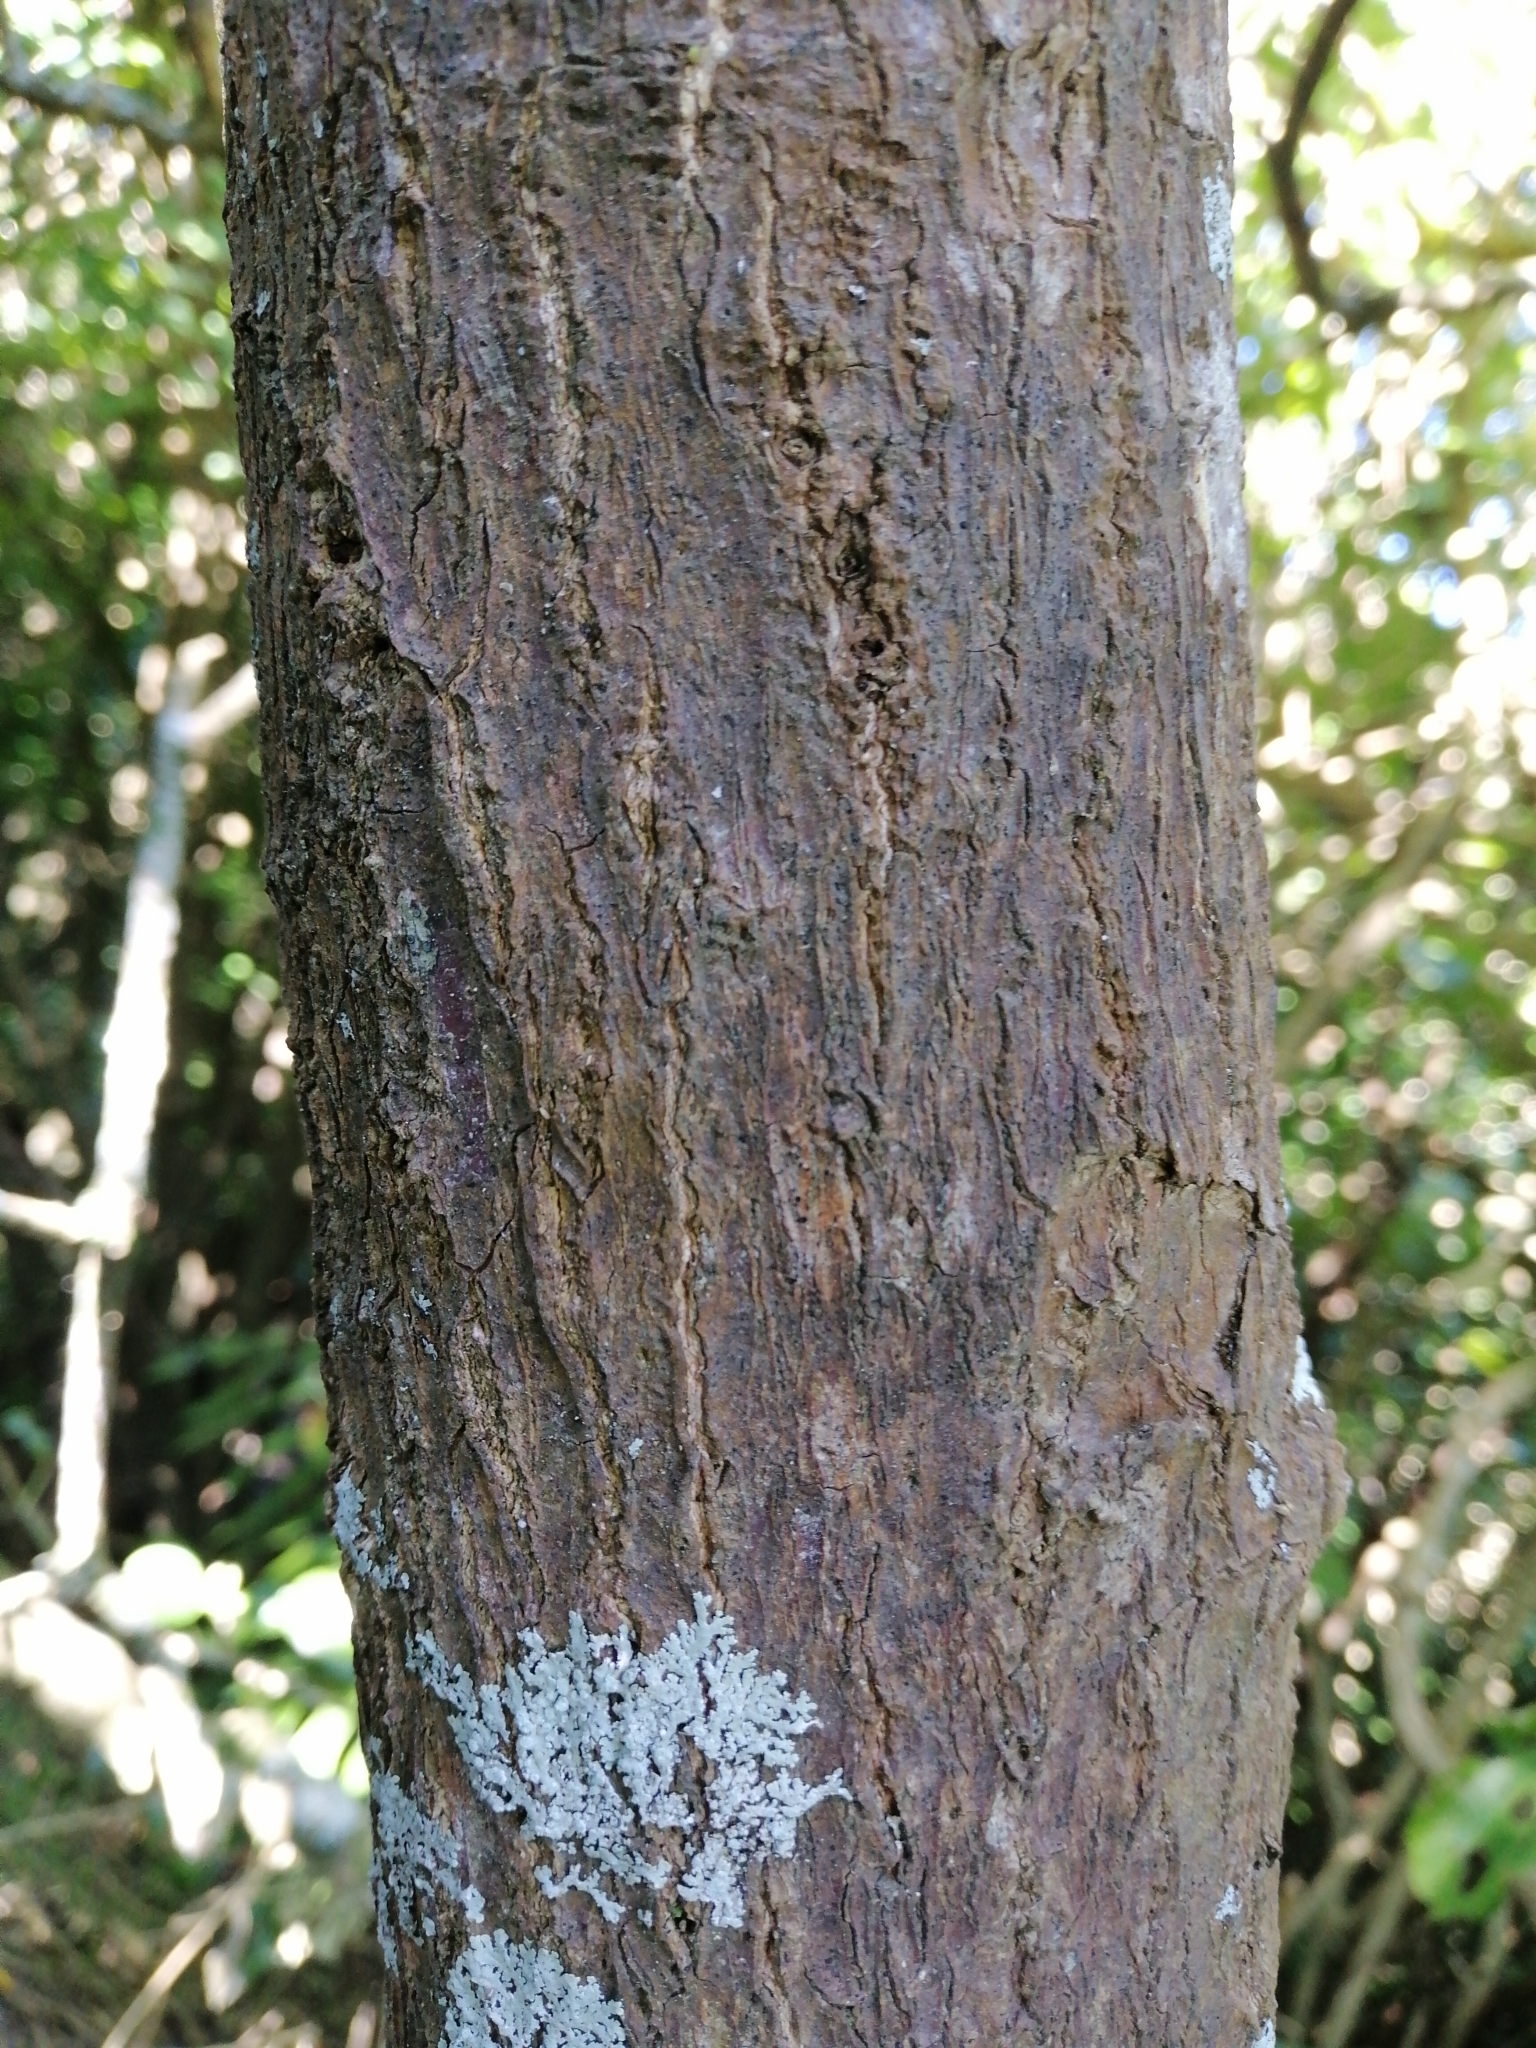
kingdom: Plantae
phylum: Tracheophyta
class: Magnoliopsida
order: Gentianales
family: Rubiaceae
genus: Coprosma
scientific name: Coprosma repens
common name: Tree bedstraw
